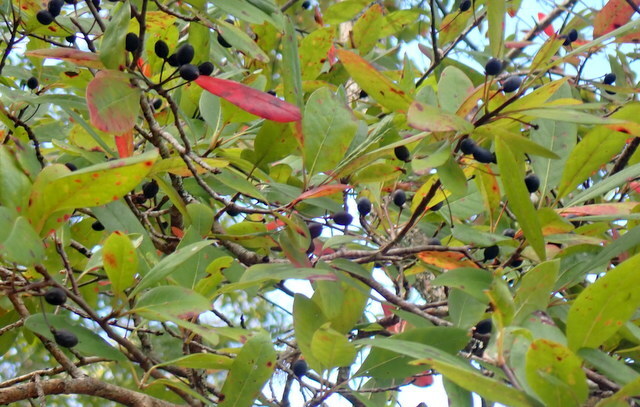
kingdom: Plantae
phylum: Tracheophyta
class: Magnoliopsida
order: Cornales
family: Nyssaceae
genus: Nyssa
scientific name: Nyssa biflora
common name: Swamp blackgum
